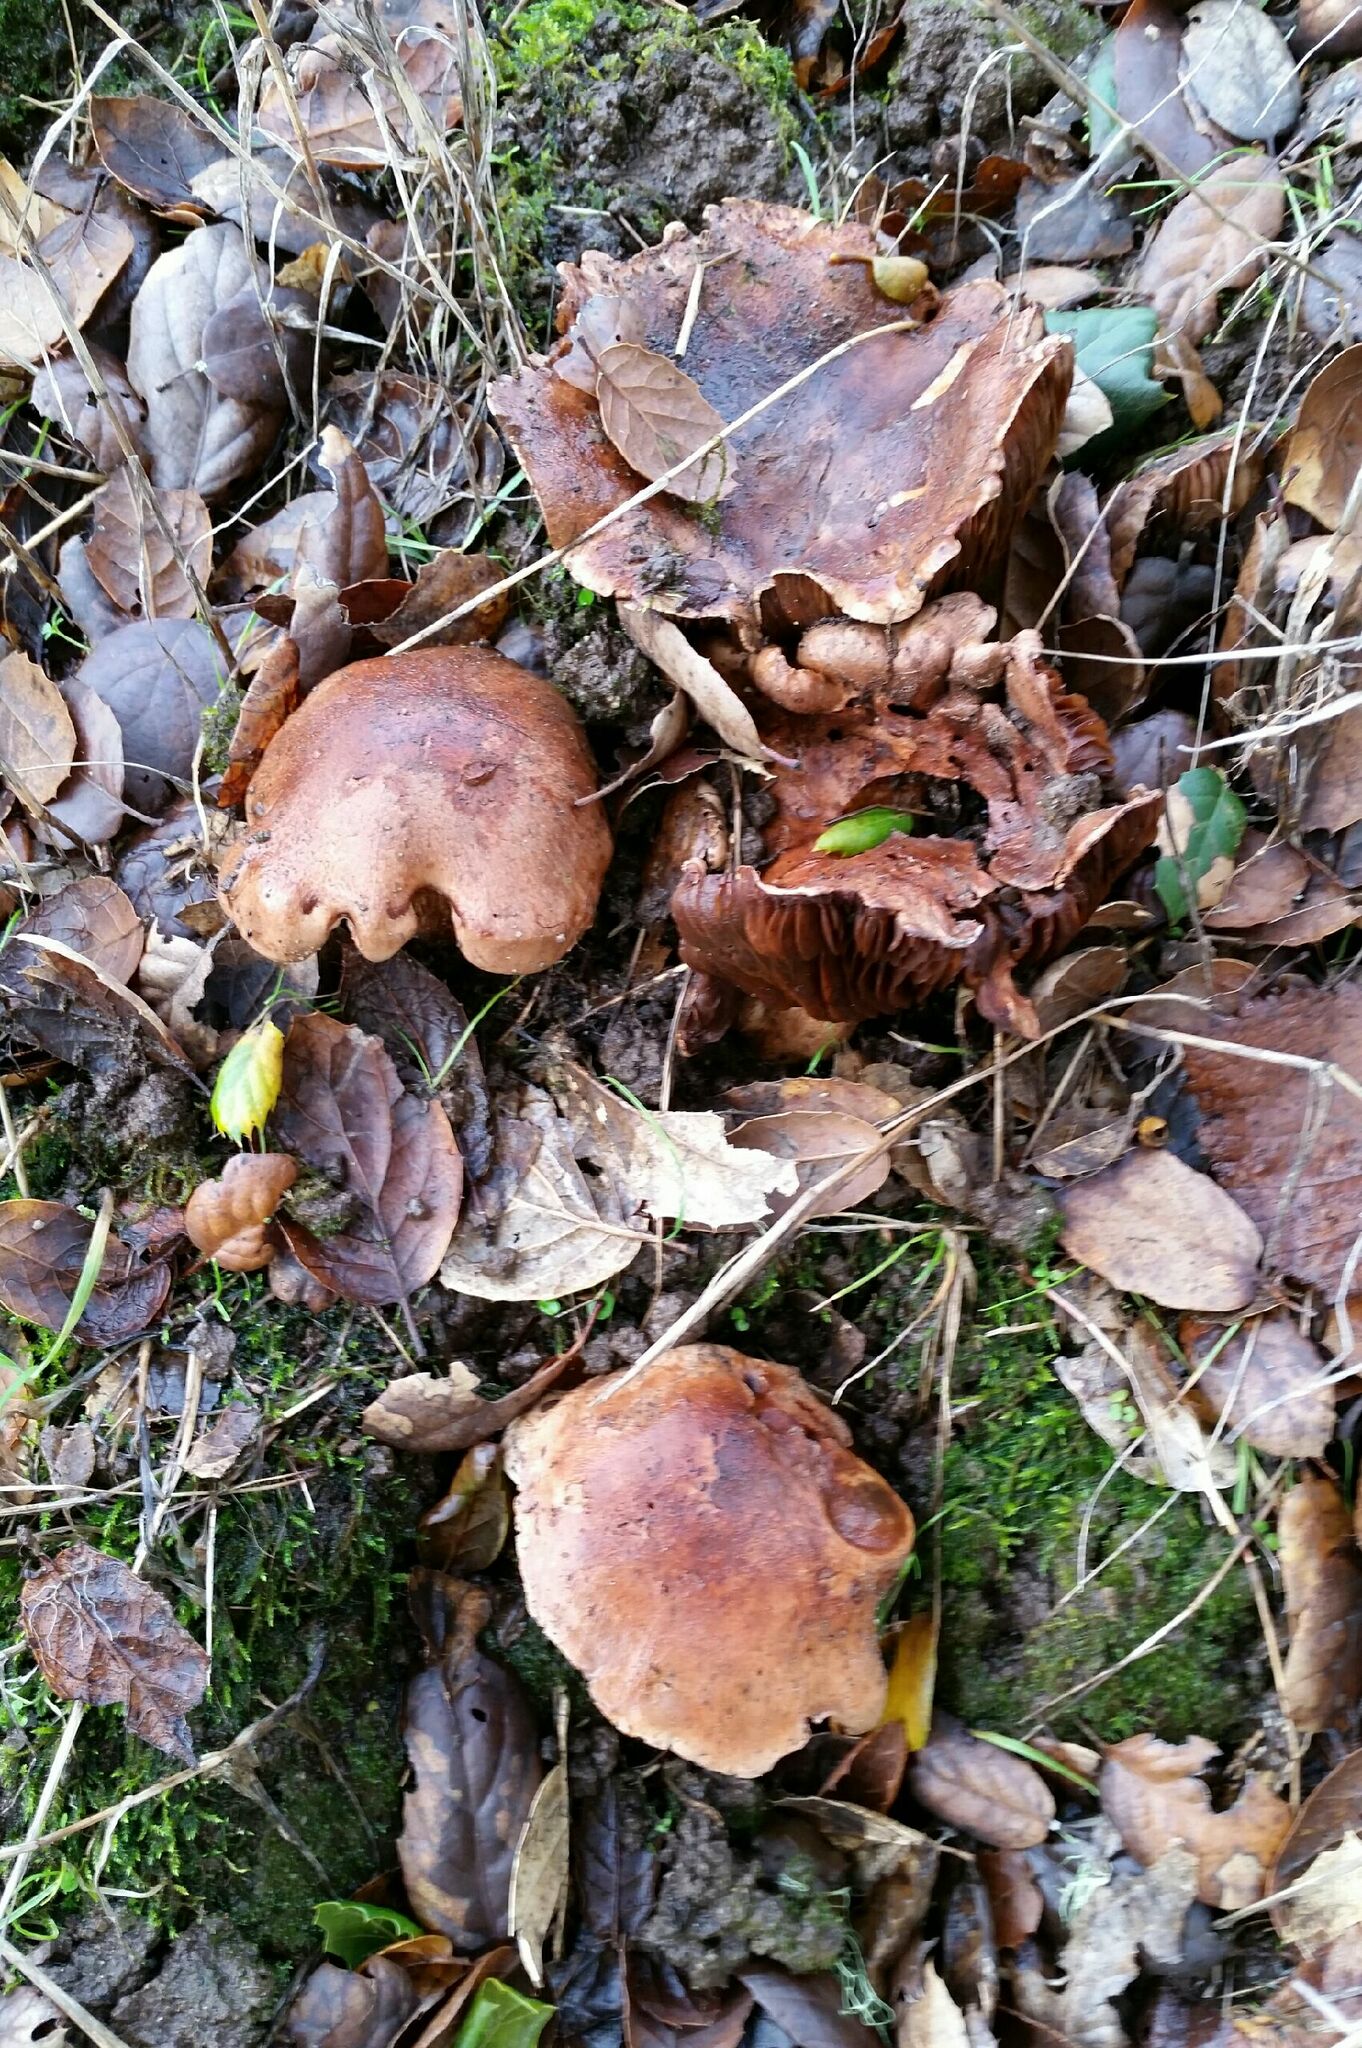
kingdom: Fungi
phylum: Basidiomycota
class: Agaricomycetes
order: Agaricales
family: Tricholomataceae
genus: Melanoleuca
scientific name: Melanoleuca dryophila
